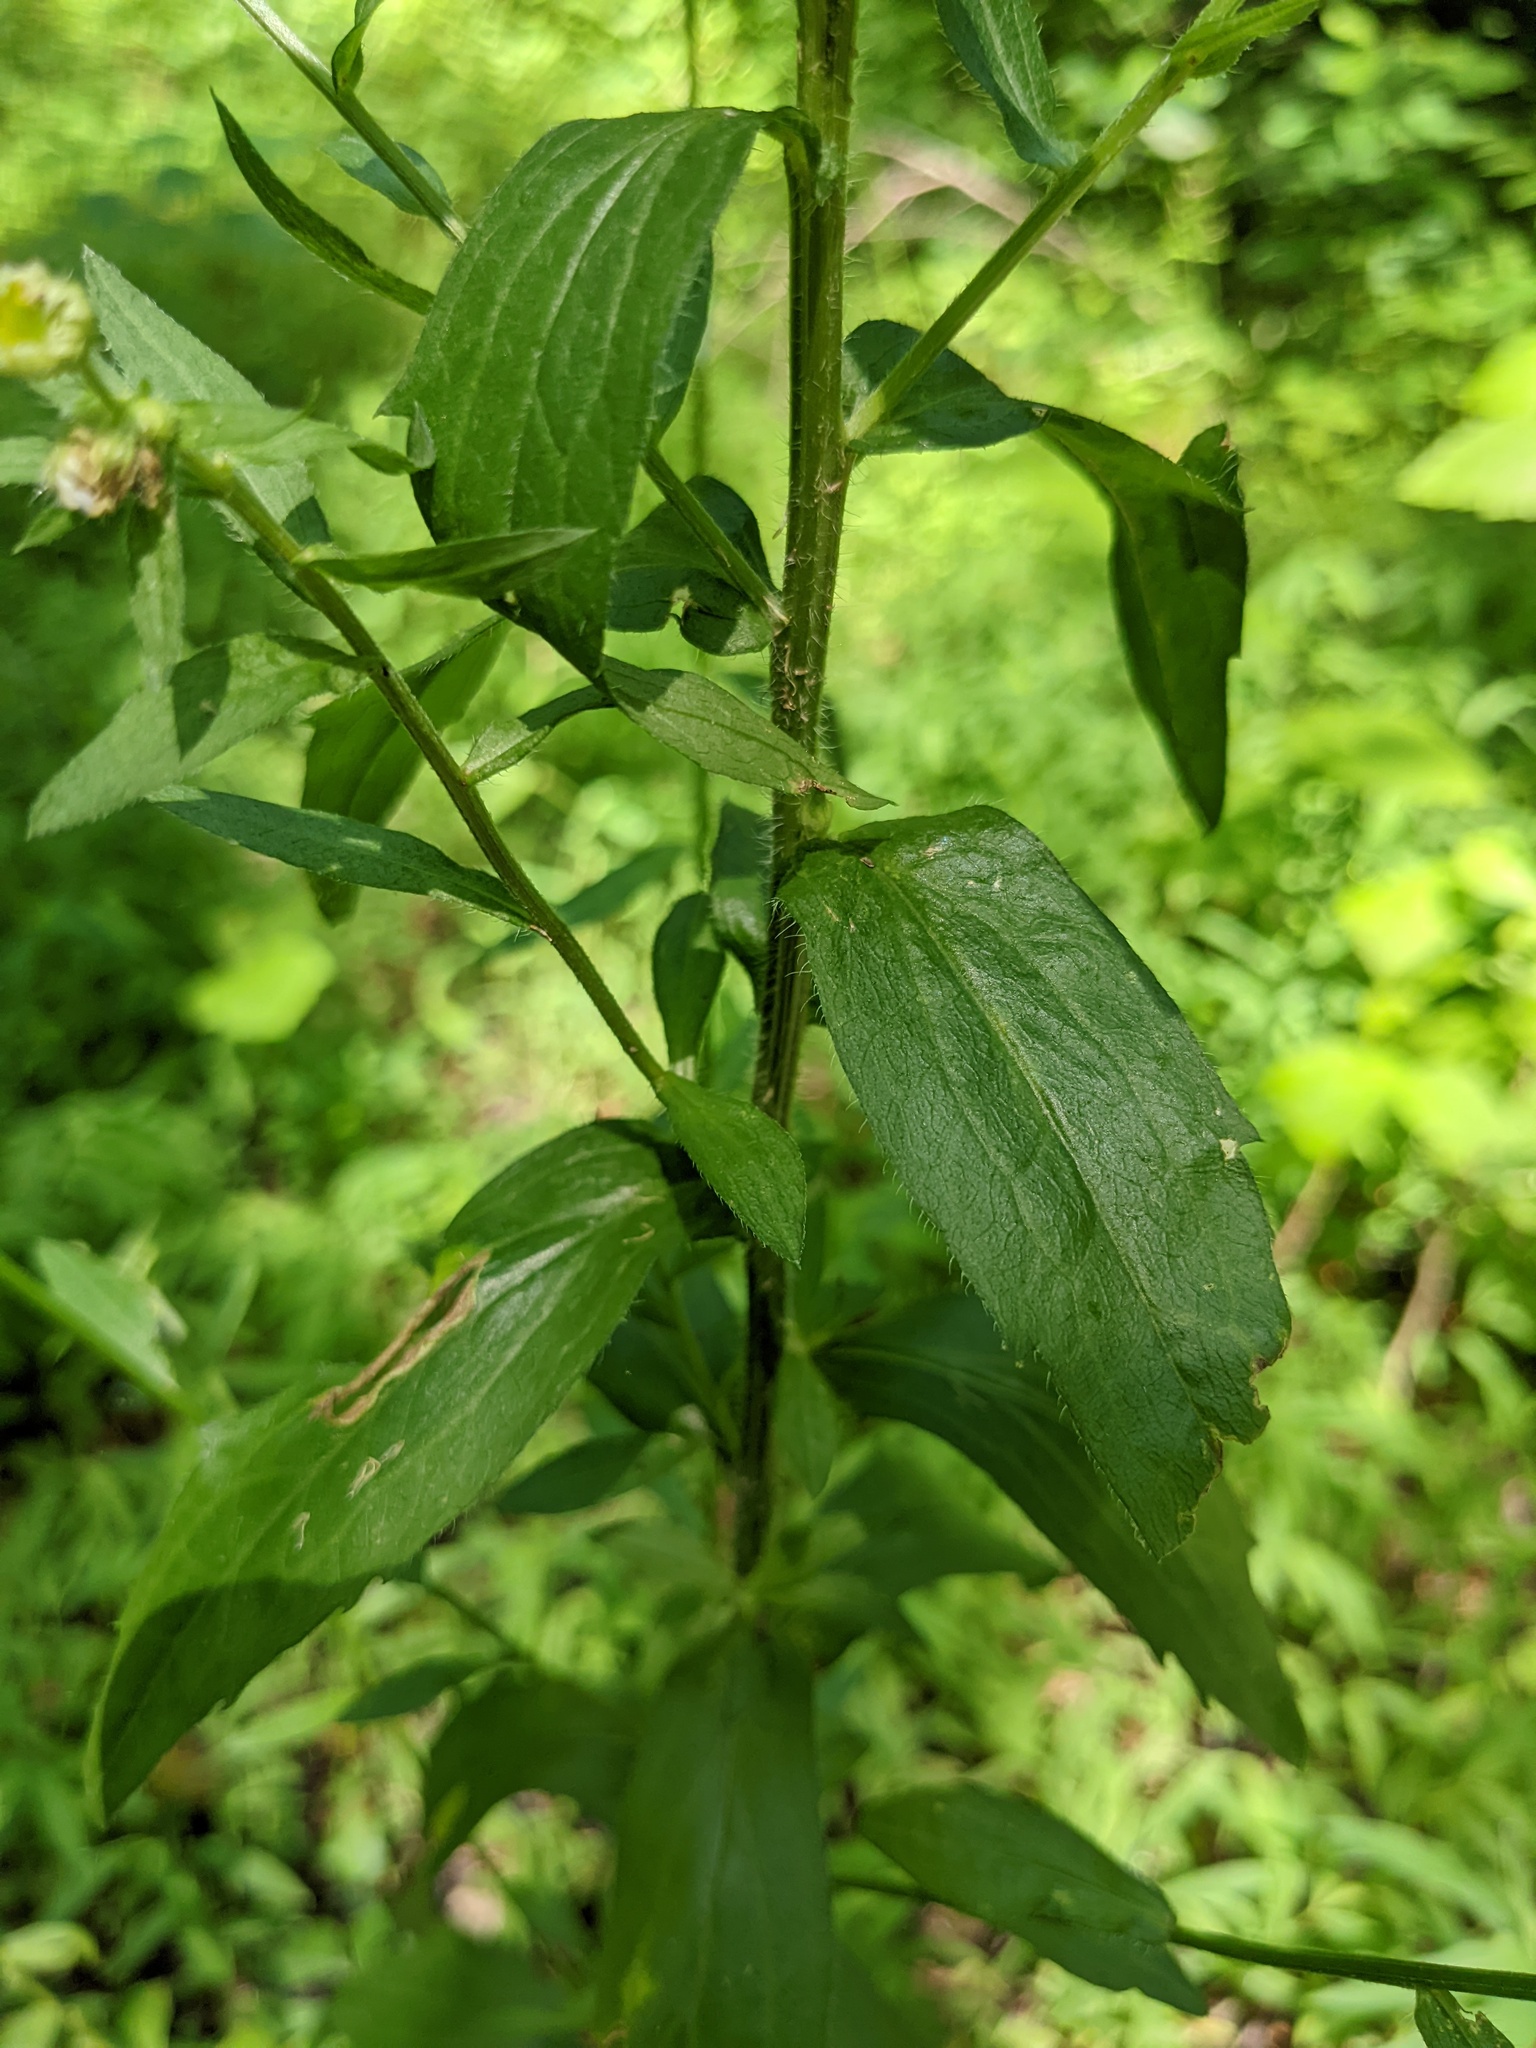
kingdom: Plantae
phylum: Tracheophyta
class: Magnoliopsida
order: Asterales
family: Asteraceae
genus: Erigeron
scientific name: Erigeron annuus
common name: Tall fleabane
